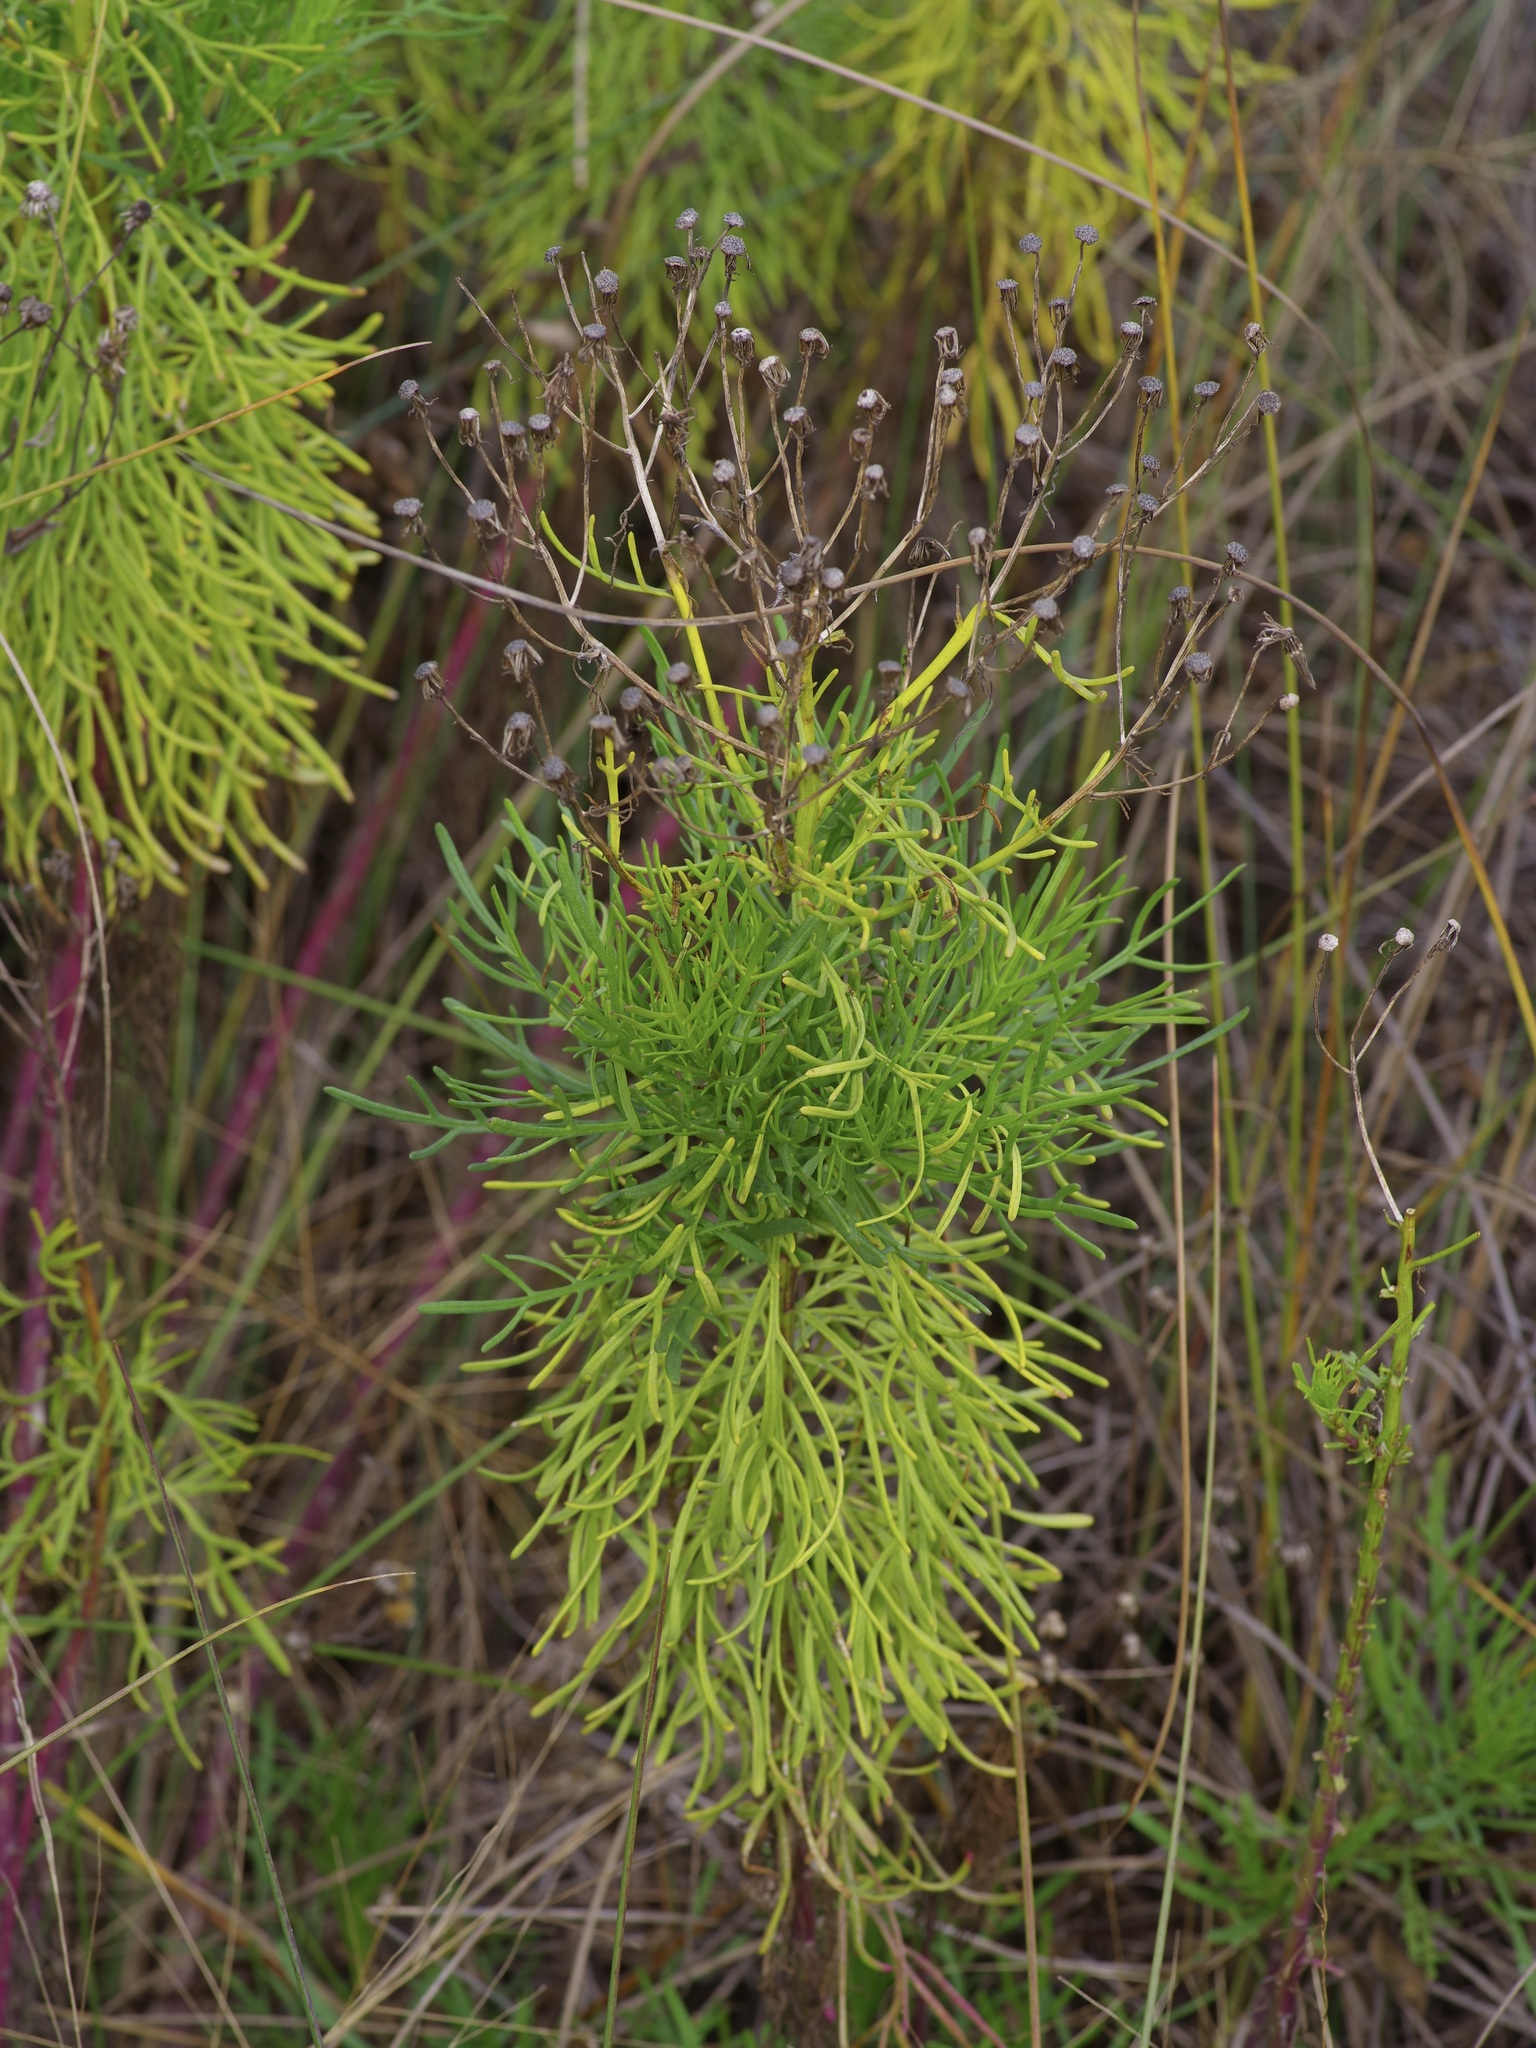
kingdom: Plantae
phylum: Tracheophyta
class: Magnoliopsida
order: Asterales
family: Asteraceae
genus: Senecio
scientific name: Senecio riddellii
